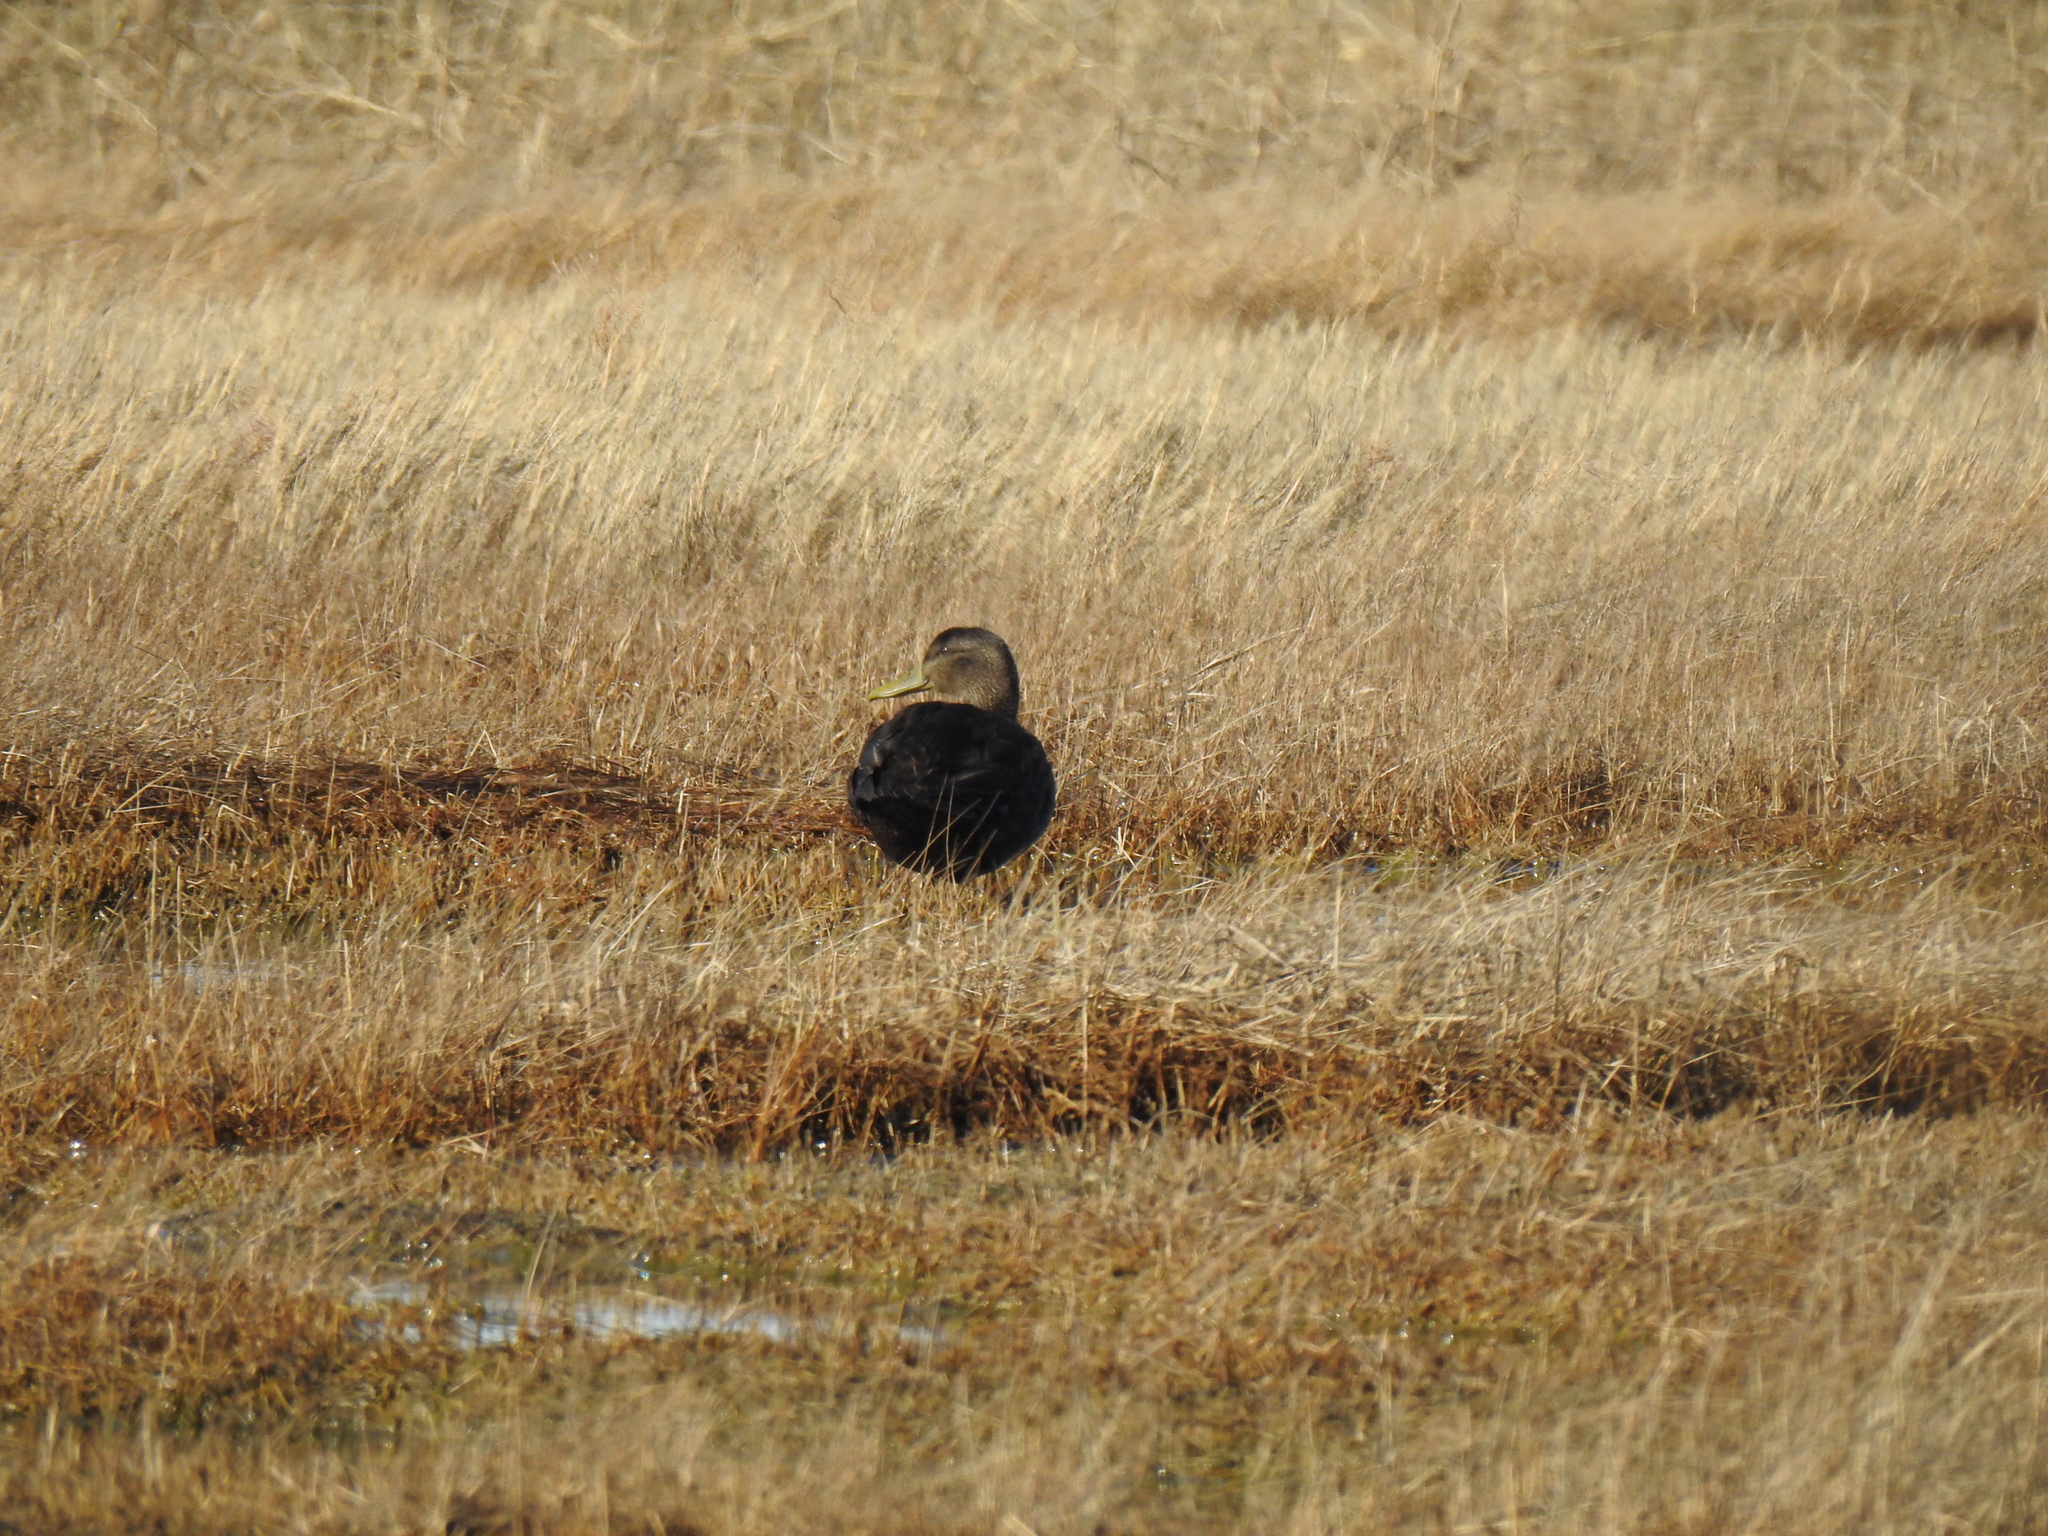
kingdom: Animalia
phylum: Chordata
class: Aves
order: Anseriformes
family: Anatidae
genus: Anas
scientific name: Anas rubripes
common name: American black duck
